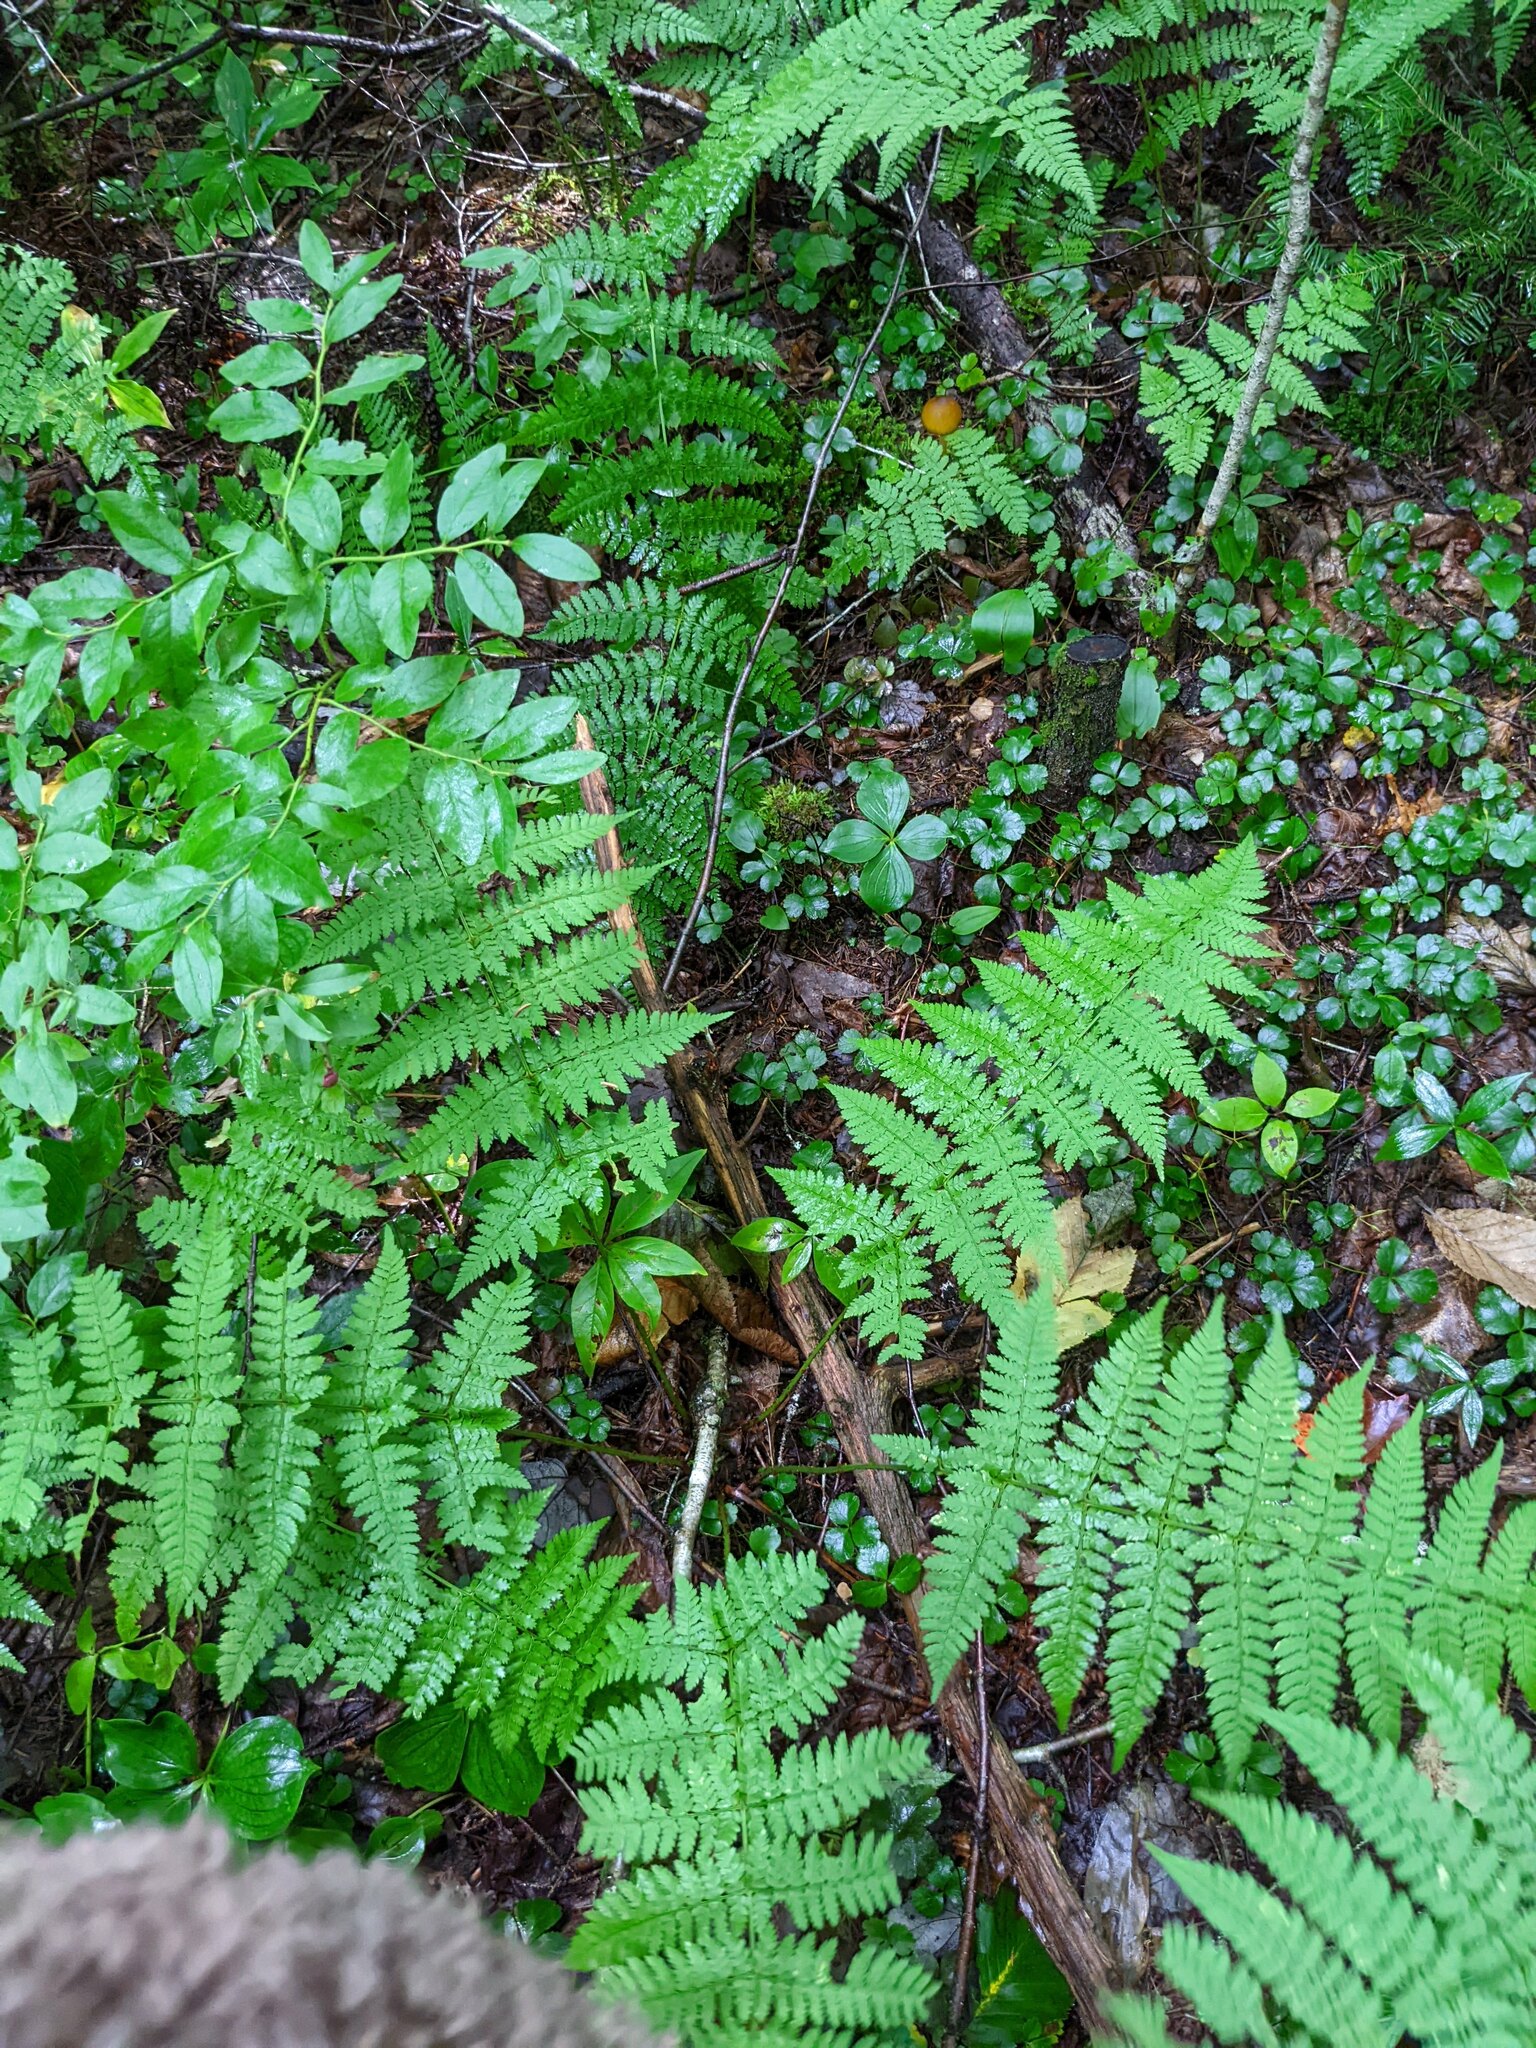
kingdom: Plantae
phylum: Tracheophyta
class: Polypodiopsida
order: Polypodiales
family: Dryopteridaceae
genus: Dryopteris
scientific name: Dryopteris intermedia
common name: Evergreen wood fern
